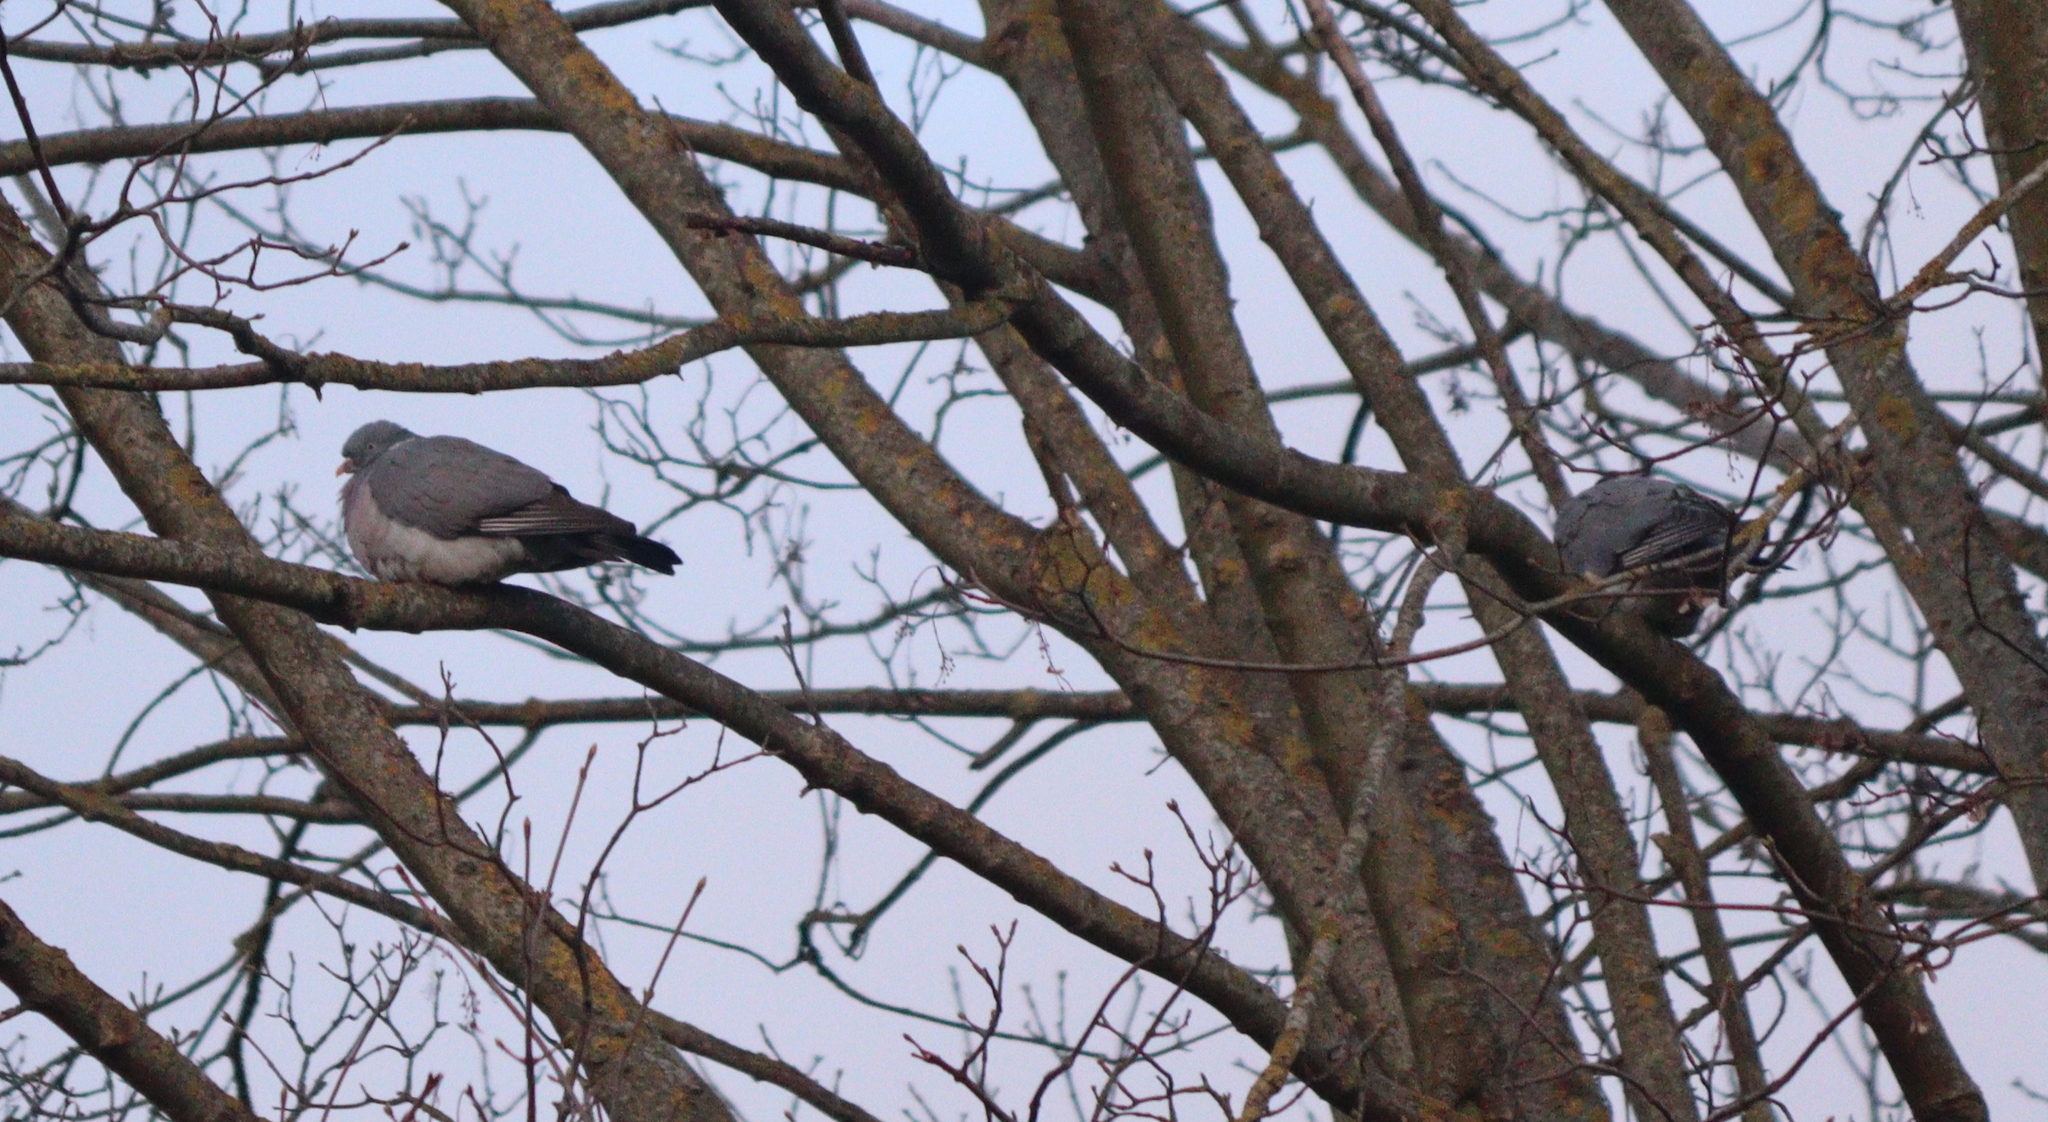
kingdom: Animalia
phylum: Chordata
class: Aves
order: Columbiformes
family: Columbidae
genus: Columba
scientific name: Columba palumbus
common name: Common wood pigeon
